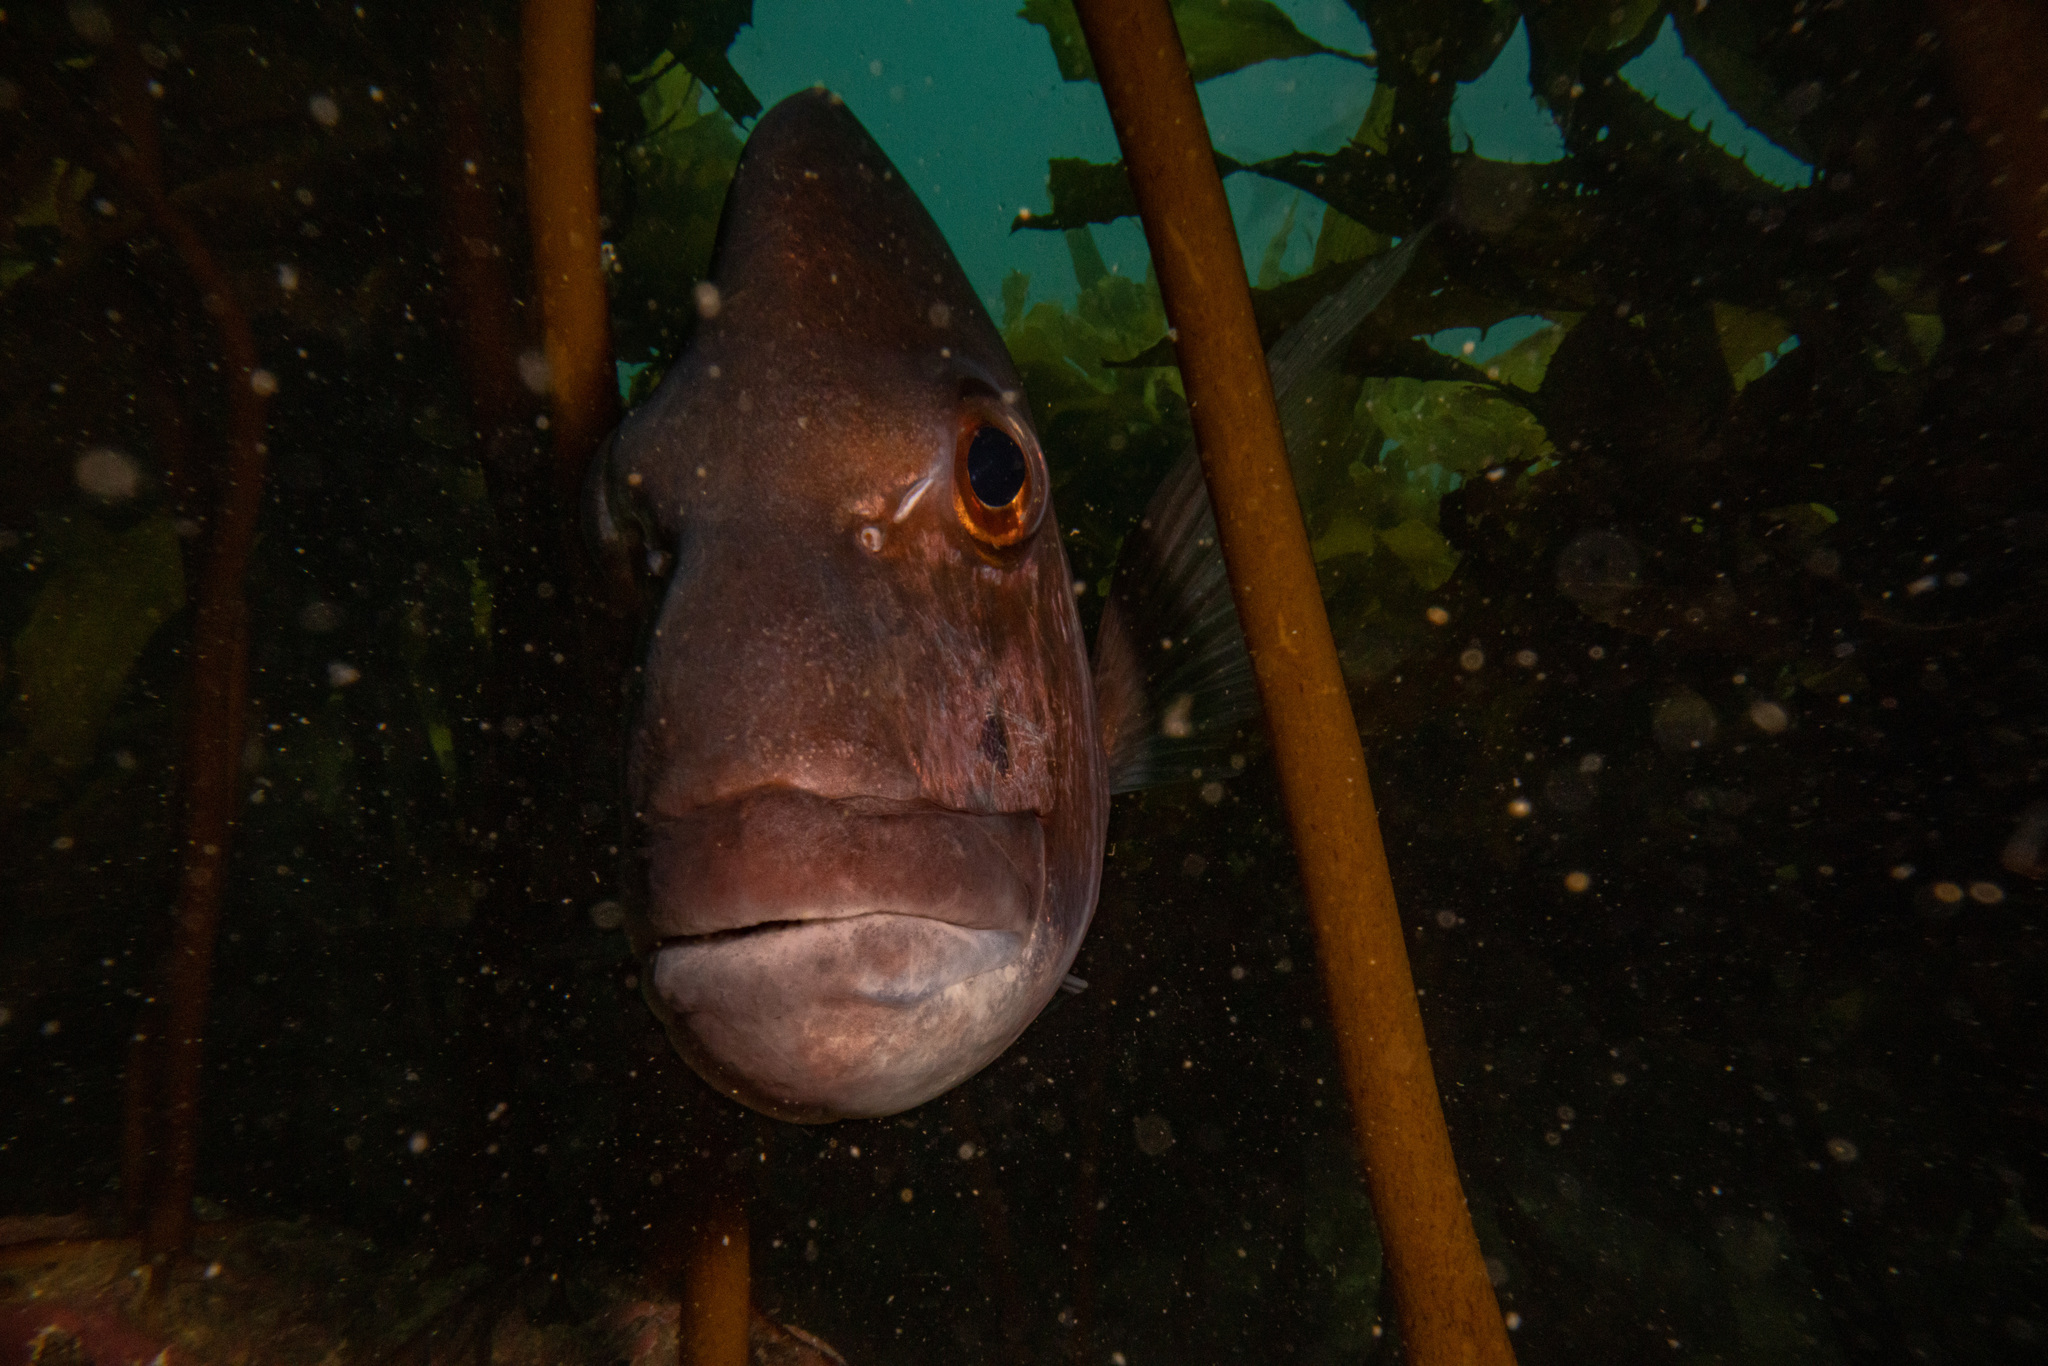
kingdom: Animalia
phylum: Chordata
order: Perciformes
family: Sparidae
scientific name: Sparidae
